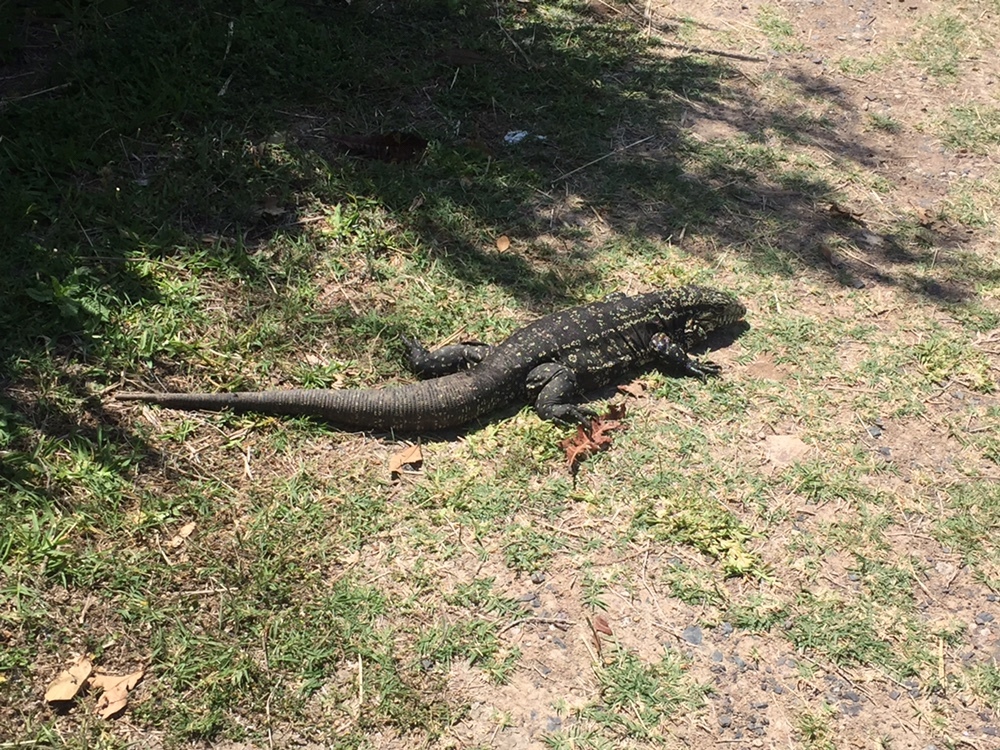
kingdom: Animalia
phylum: Chordata
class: Squamata
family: Teiidae
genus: Salvator
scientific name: Salvator merianae
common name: Argentine black and white tegu
